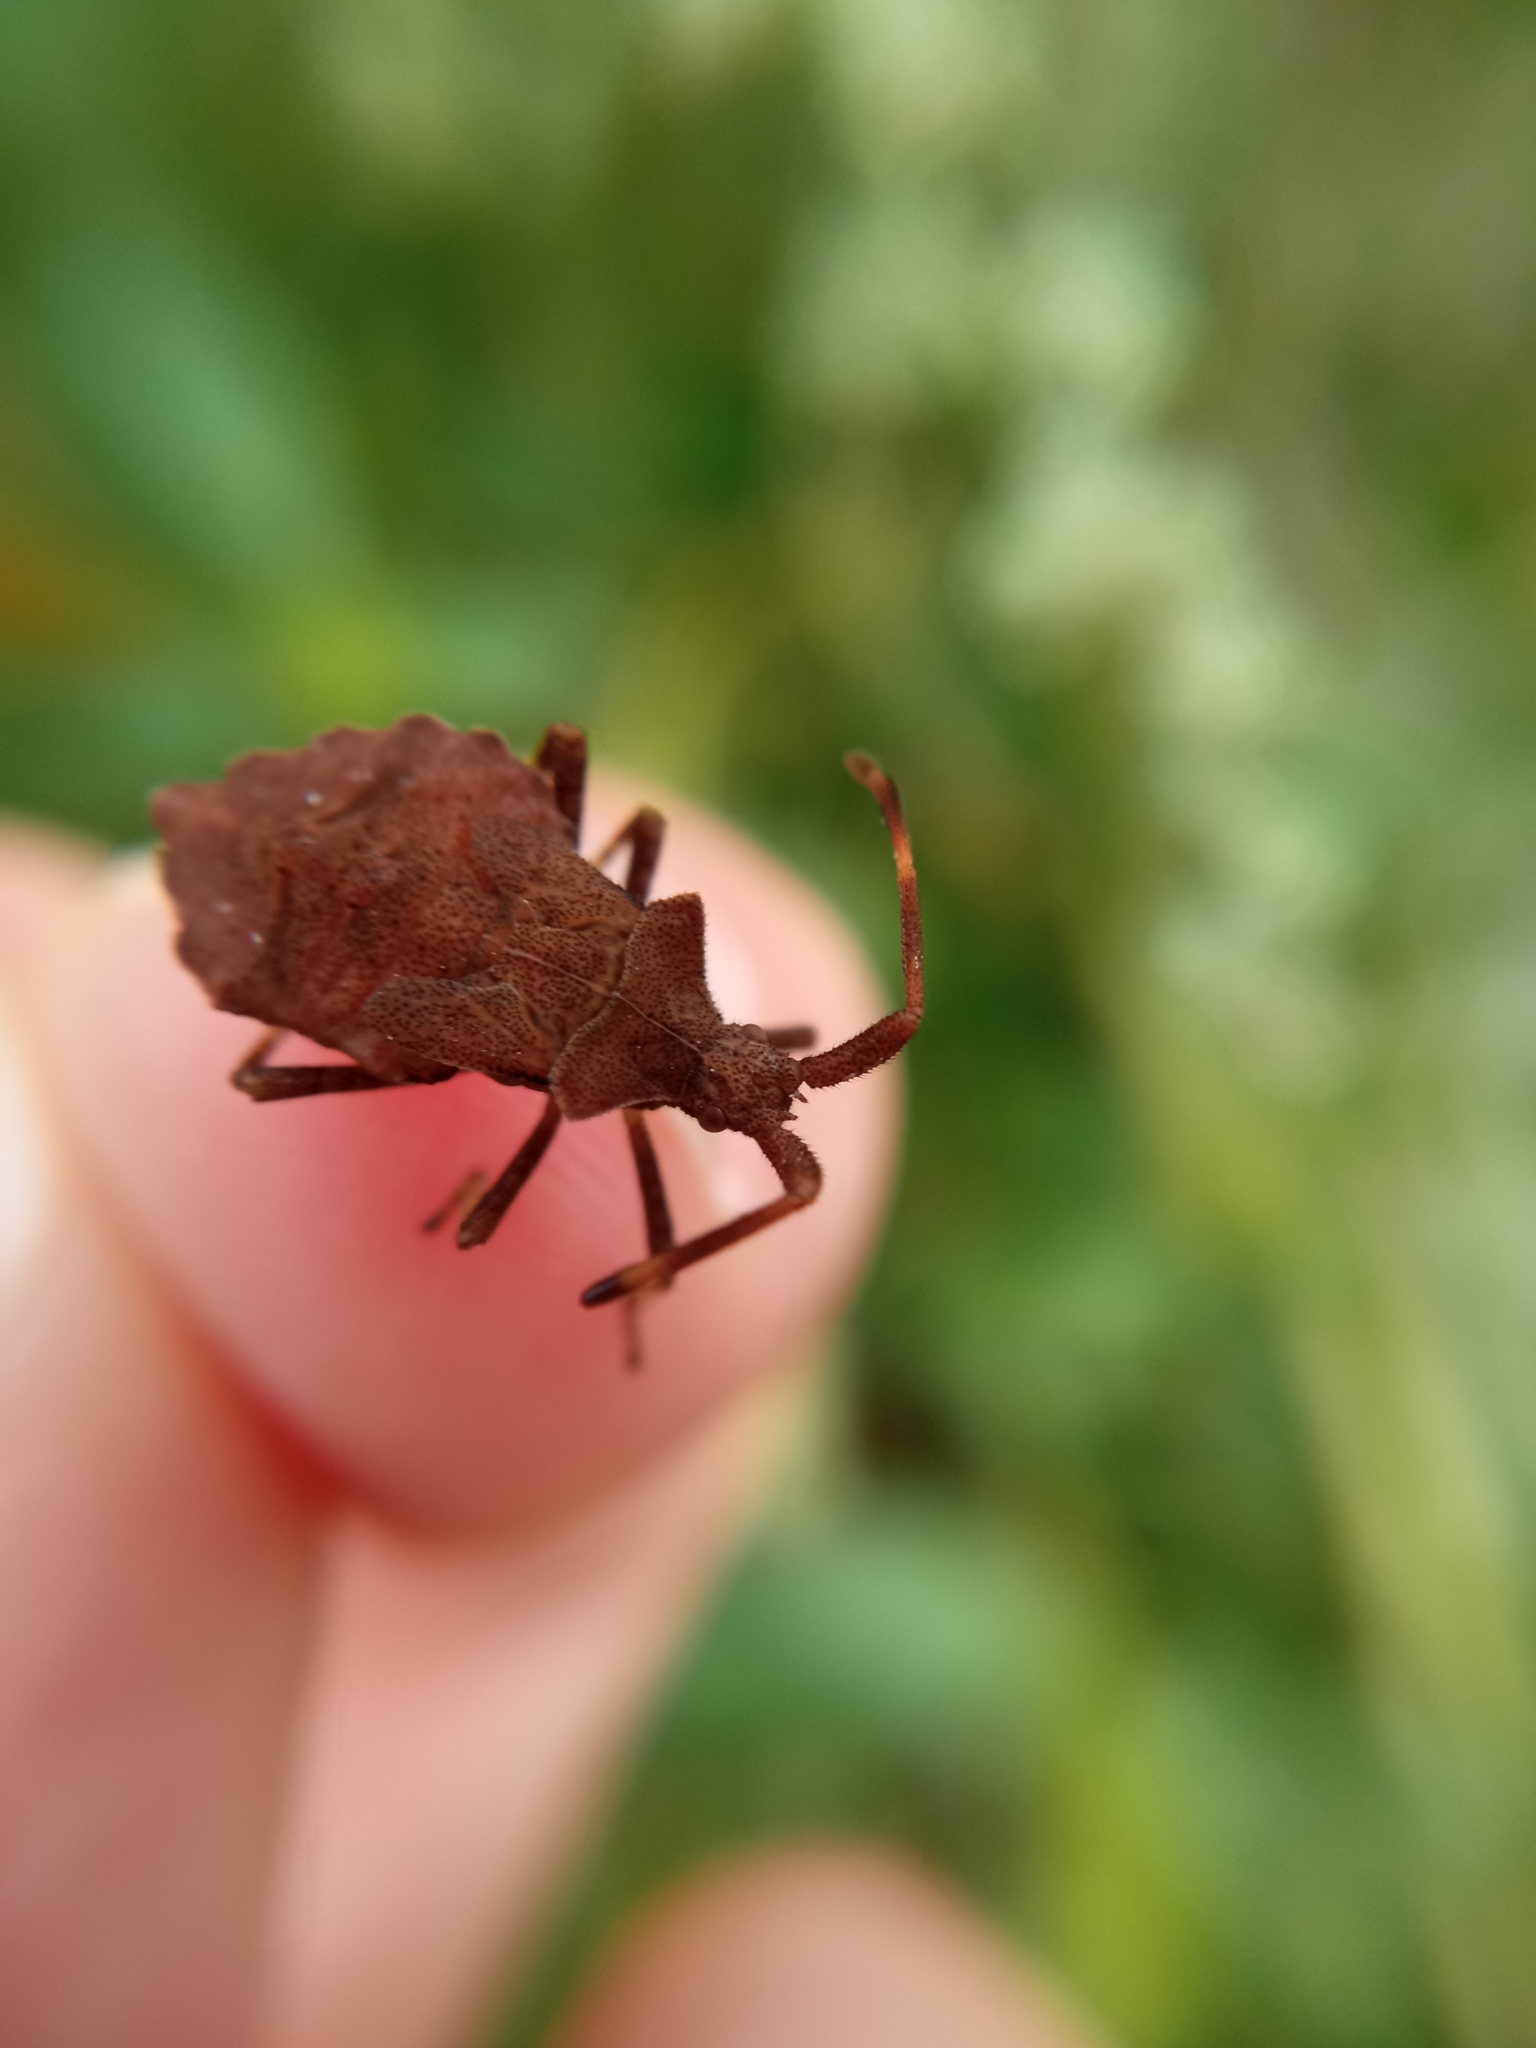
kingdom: Animalia
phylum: Arthropoda
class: Insecta
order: Hemiptera
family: Coreidae
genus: Coreus
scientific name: Coreus marginatus
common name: Dock bug
